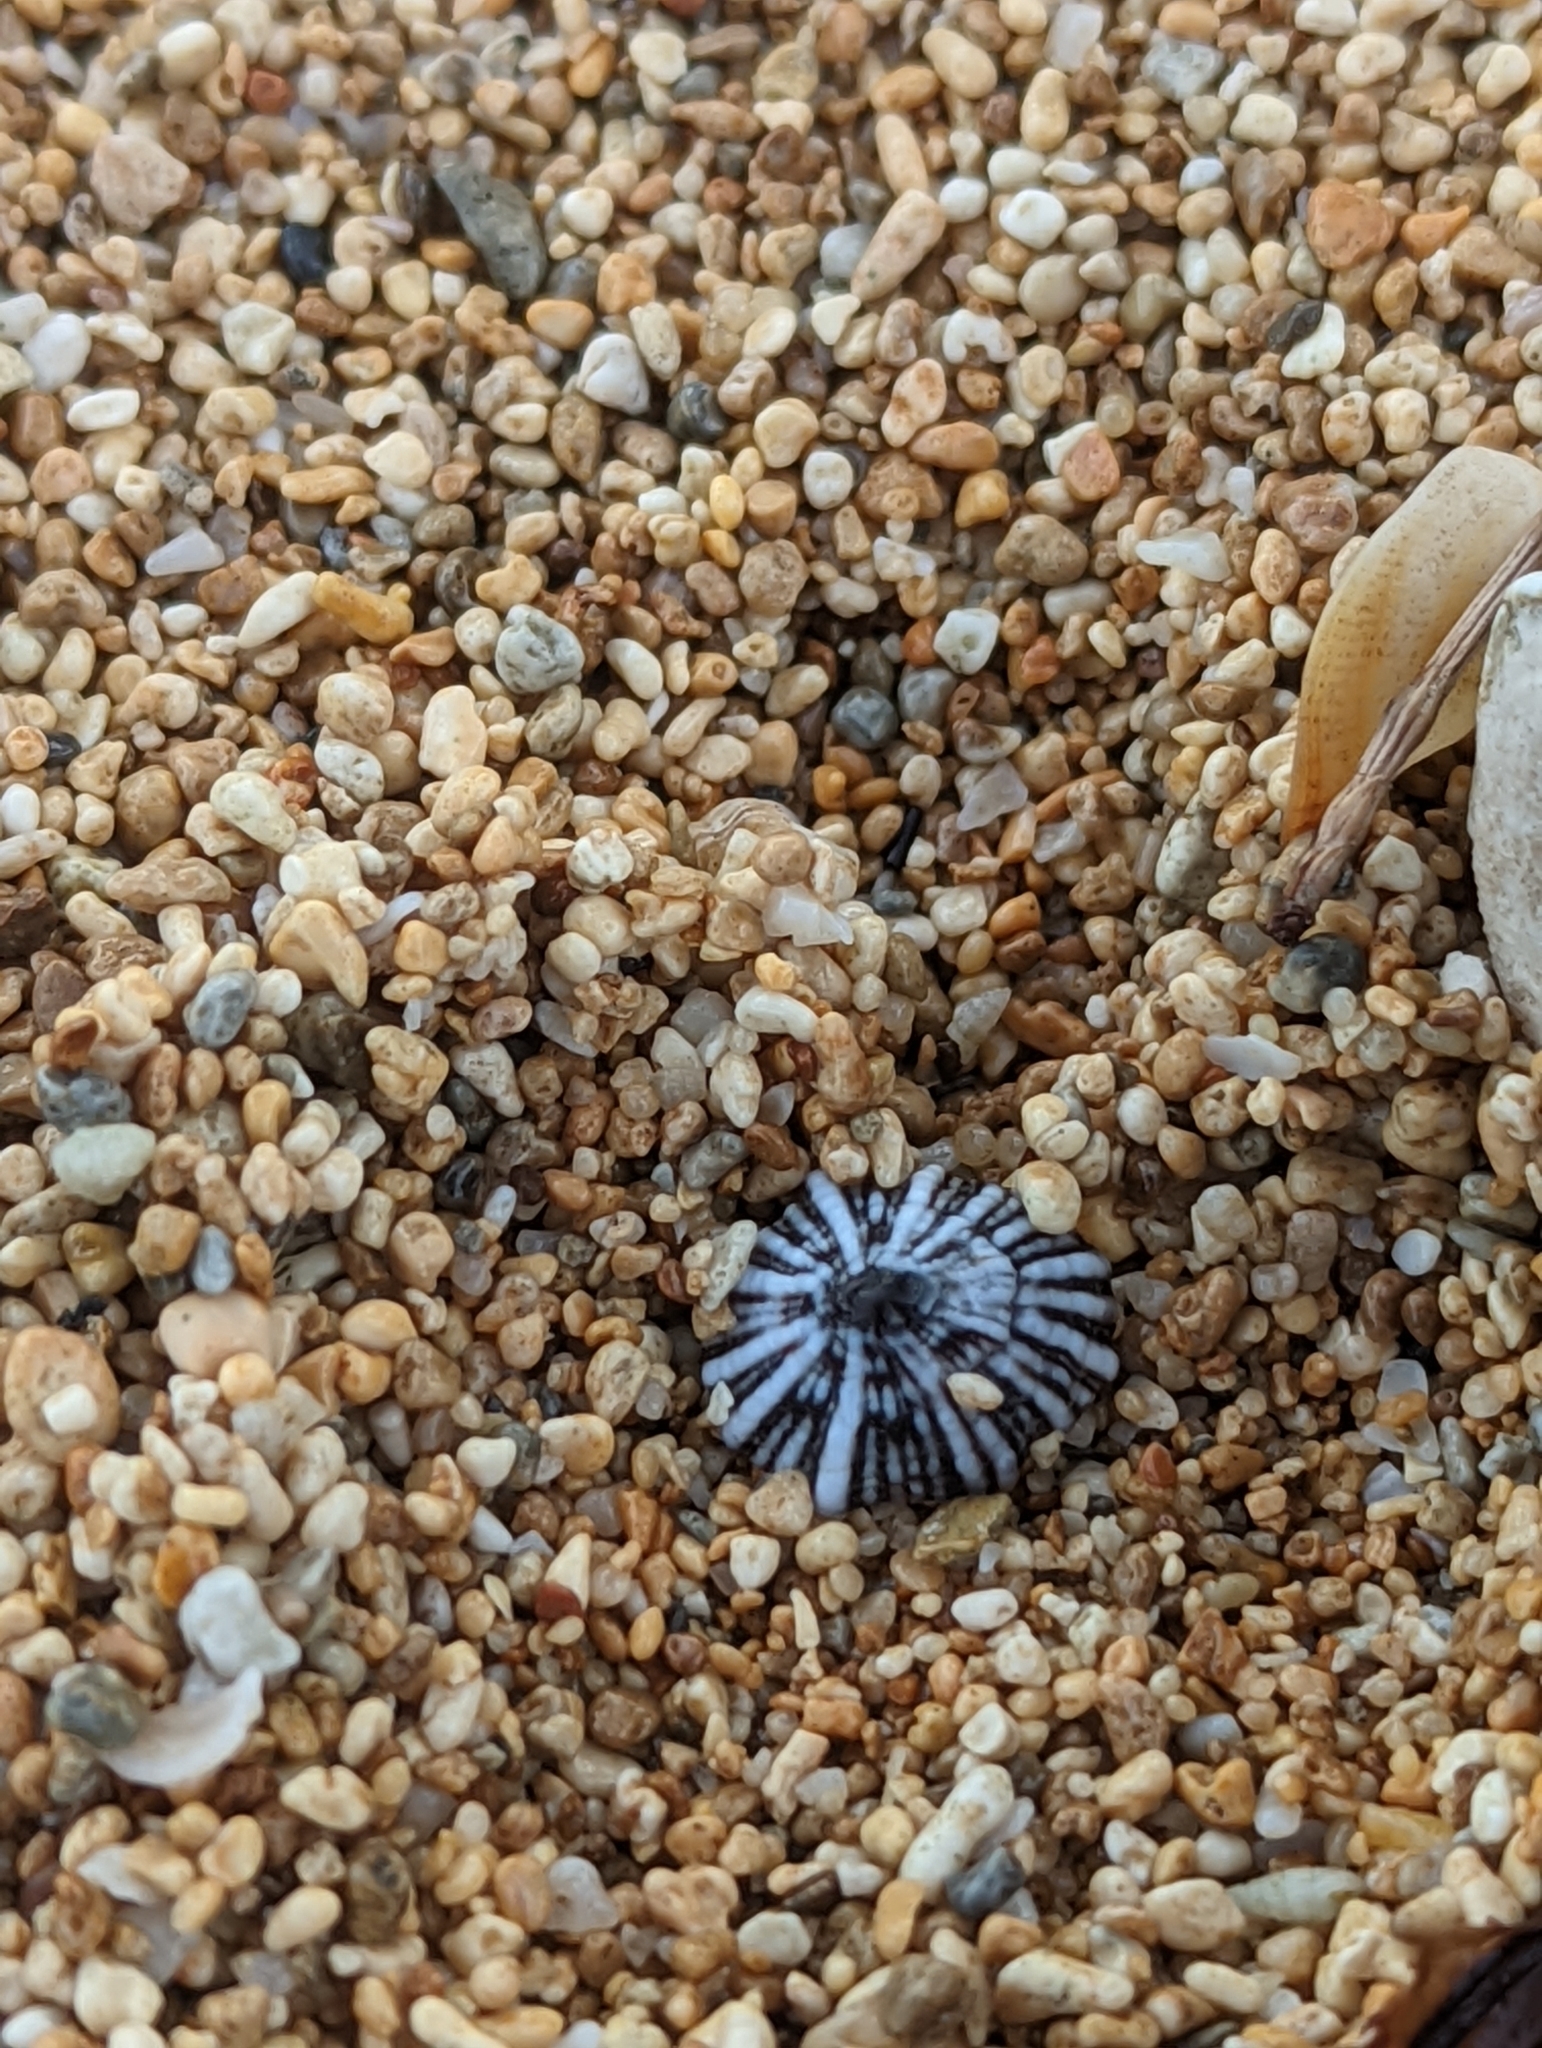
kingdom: Animalia
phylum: Mollusca
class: Gastropoda
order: Siphonariida
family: Siphonariidae
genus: Siphonaria
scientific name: Siphonaria normalis
